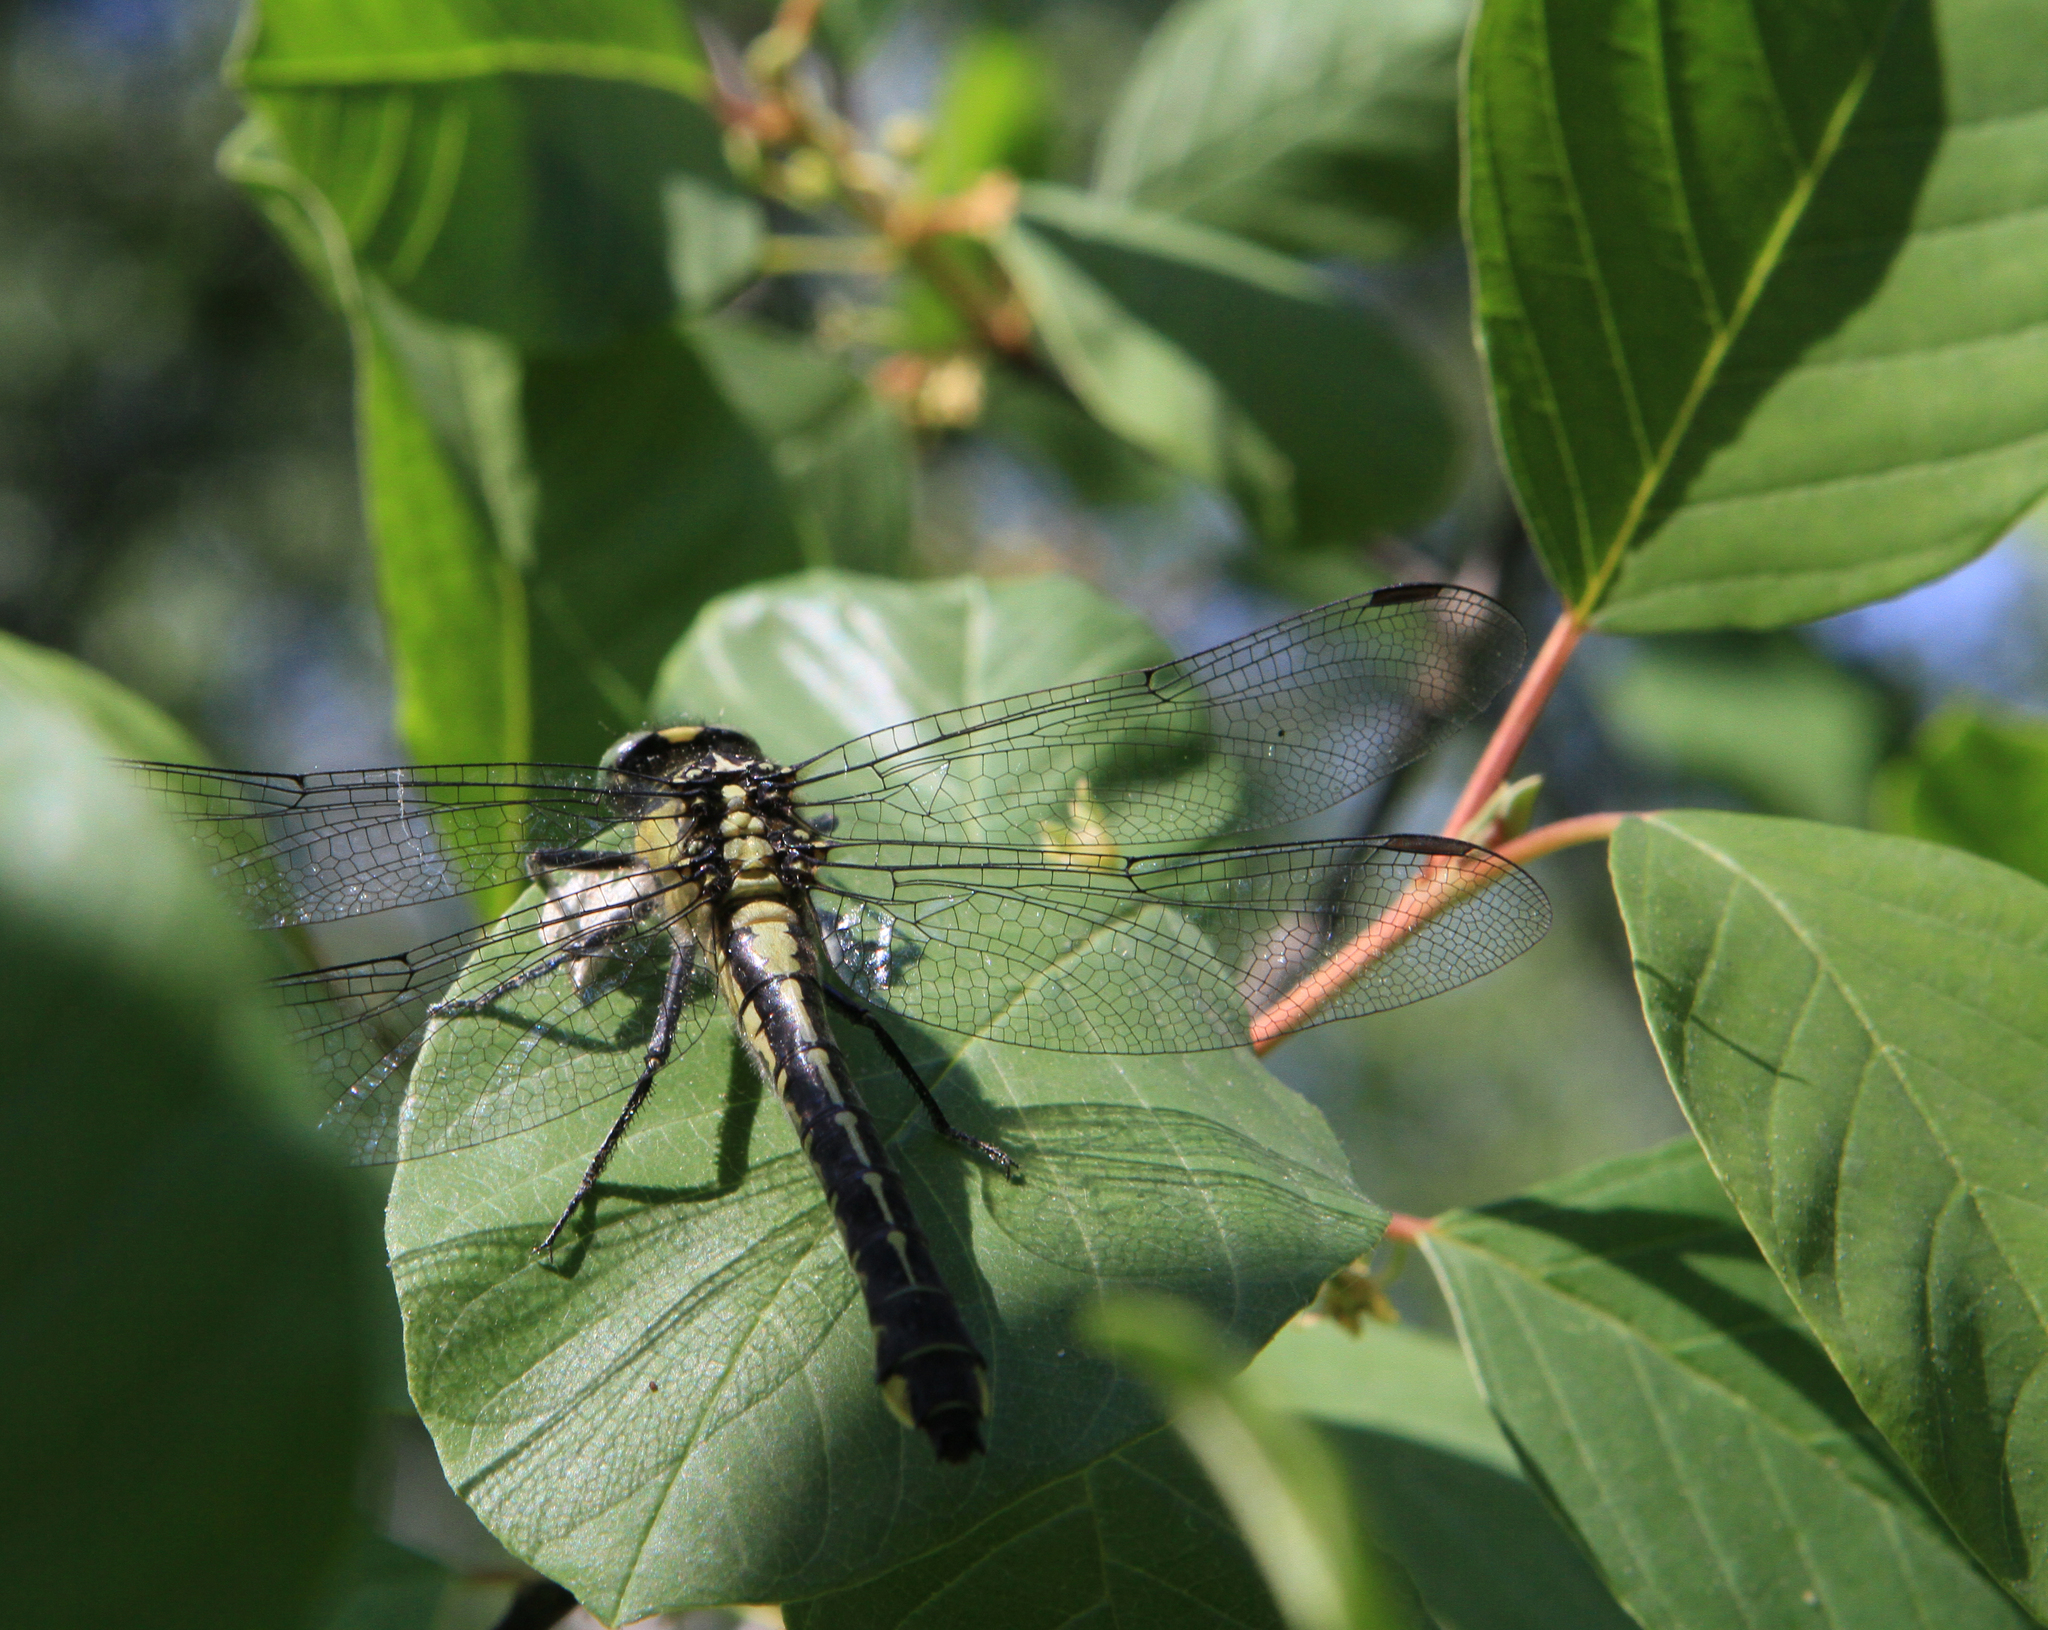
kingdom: Plantae
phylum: Tracheophyta
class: Magnoliopsida
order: Rosales
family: Rhamnaceae
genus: Frangula
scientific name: Frangula alnus
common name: Alder buckthorn
